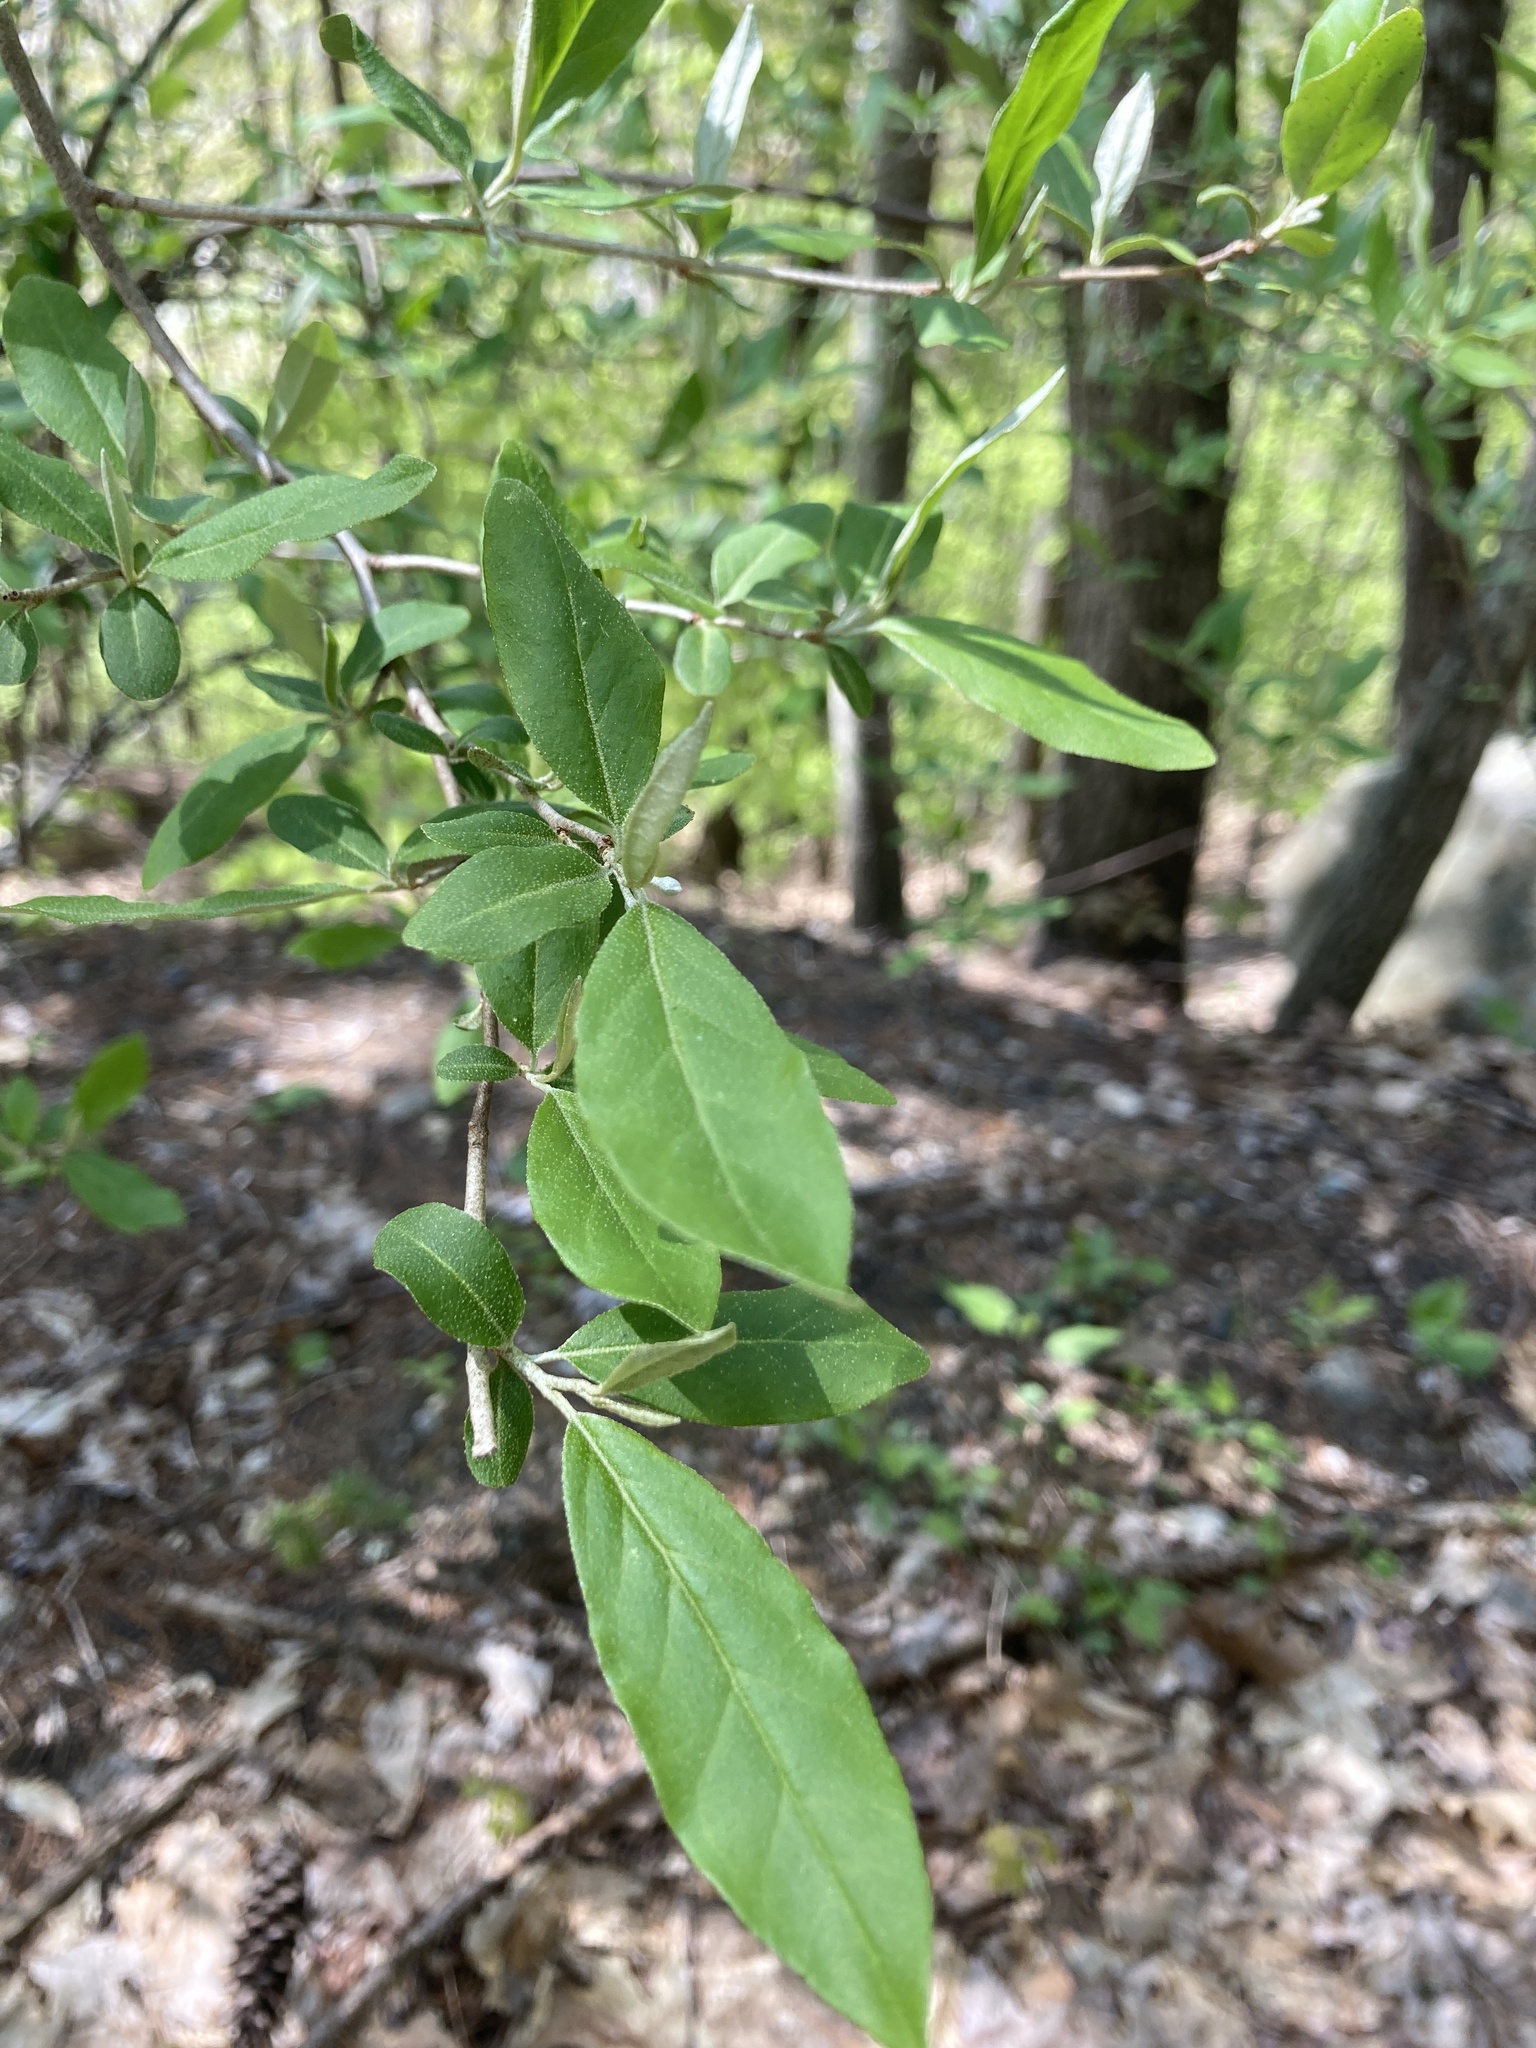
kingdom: Plantae
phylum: Tracheophyta
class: Magnoliopsida
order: Rosales
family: Elaeagnaceae
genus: Elaeagnus
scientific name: Elaeagnus umbellata
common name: Autumn olive
